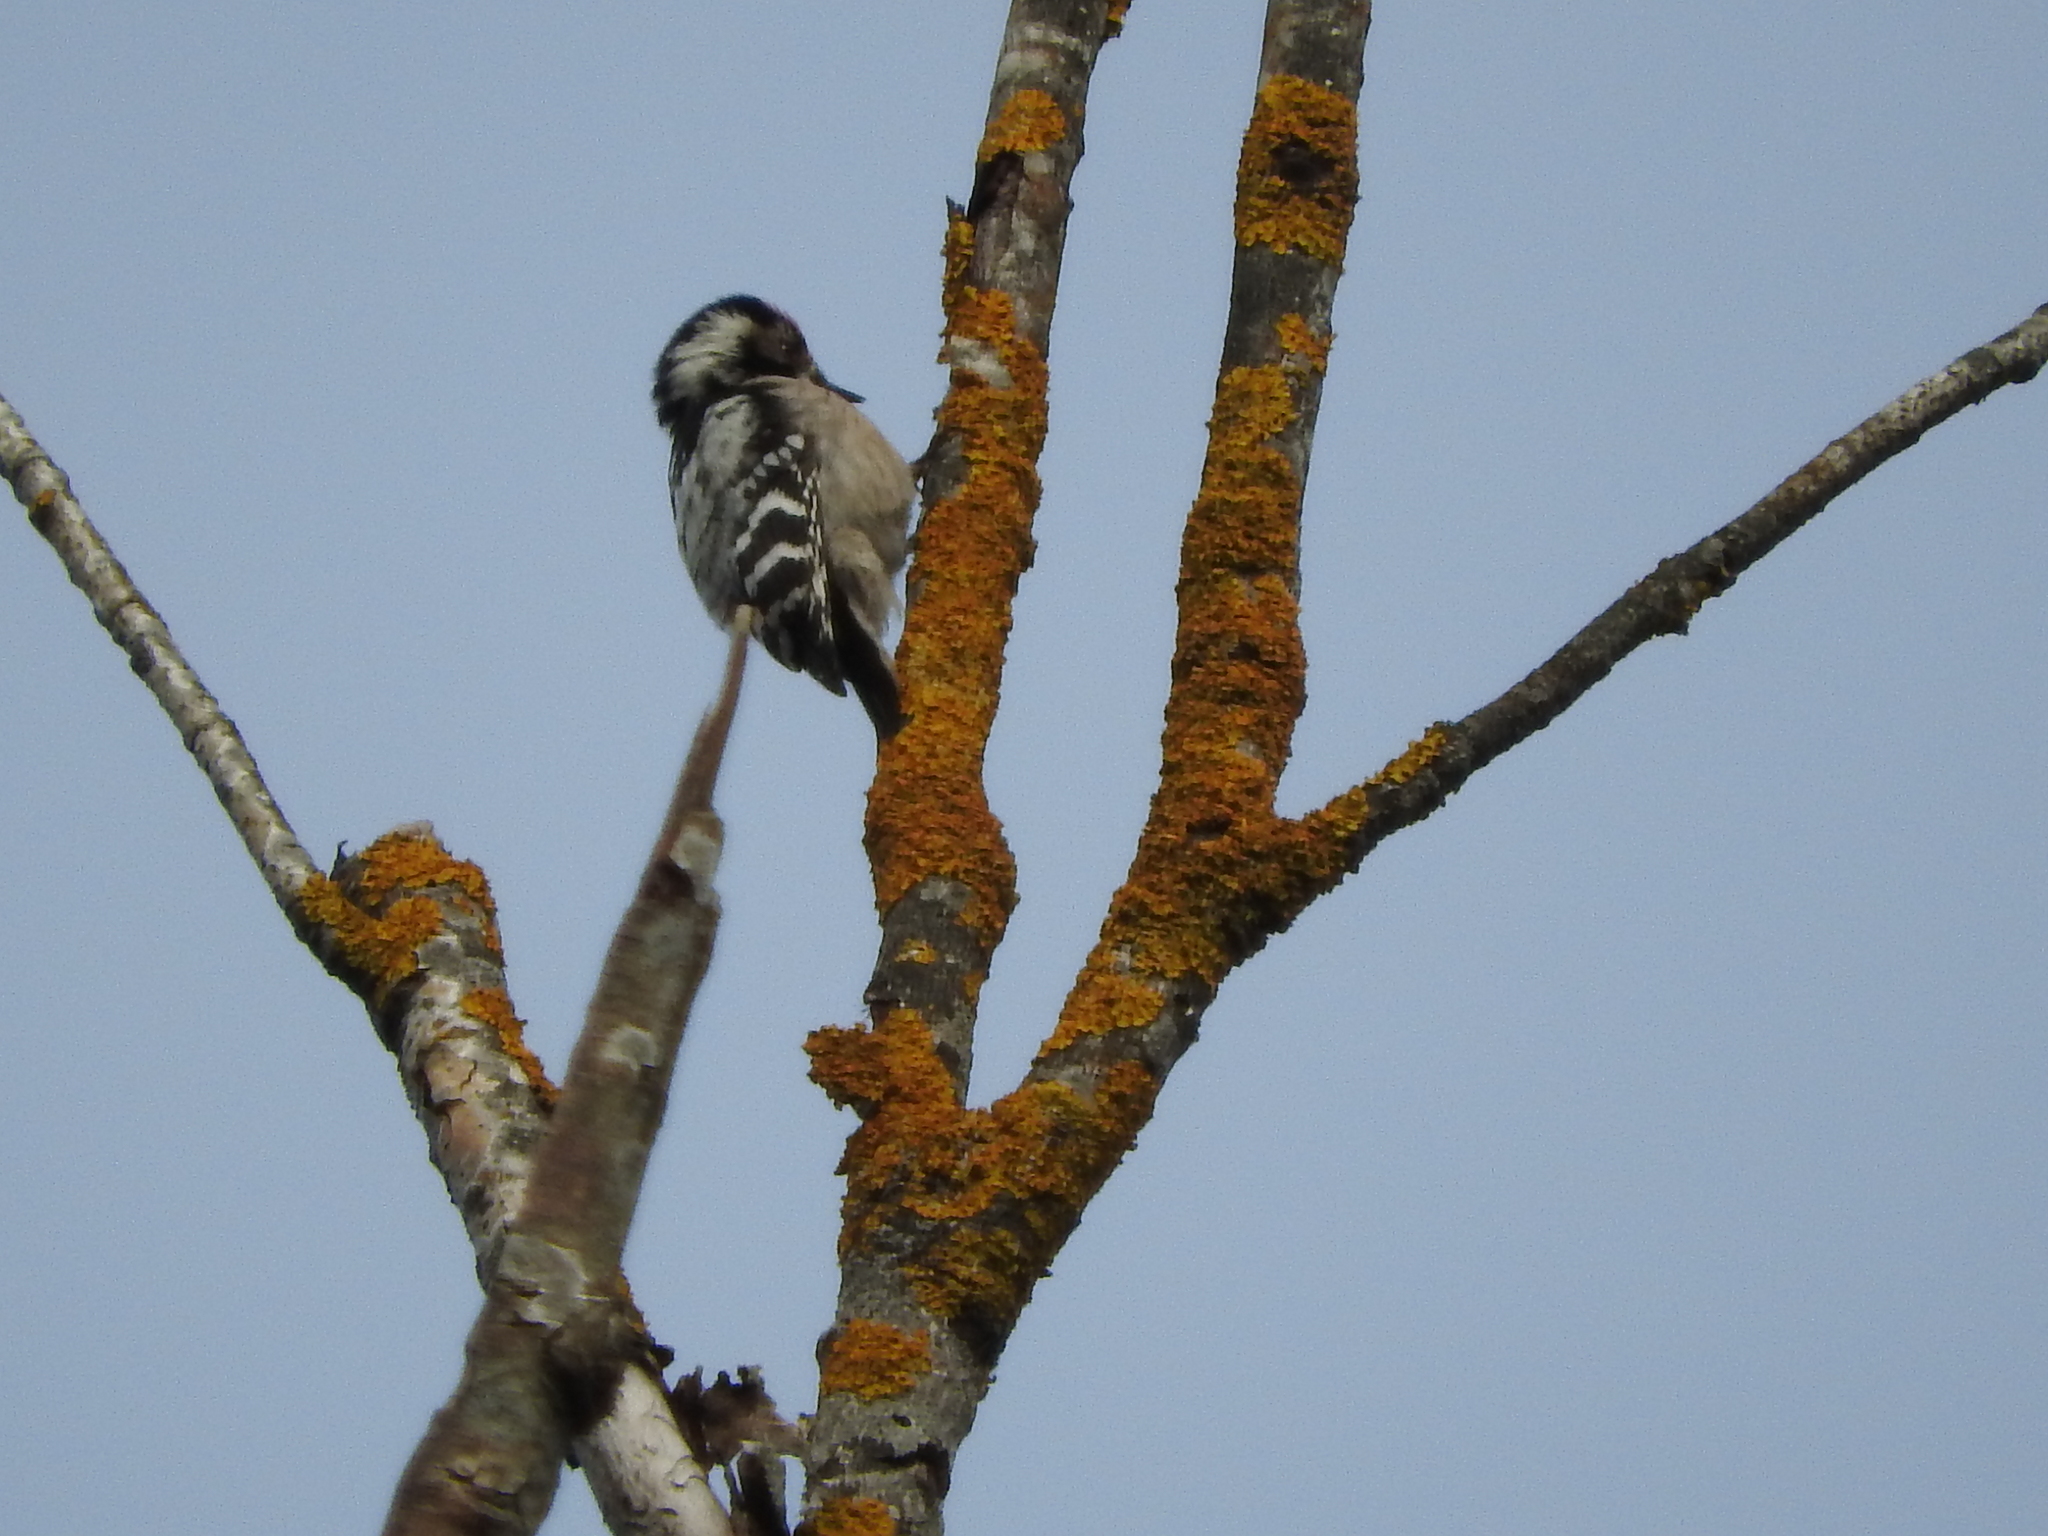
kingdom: Animalia
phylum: Chordata
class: Aves
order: Piciformes
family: Picidae
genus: Dryobates
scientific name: Dryobates minor
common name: Lesser spotted woodpecker
